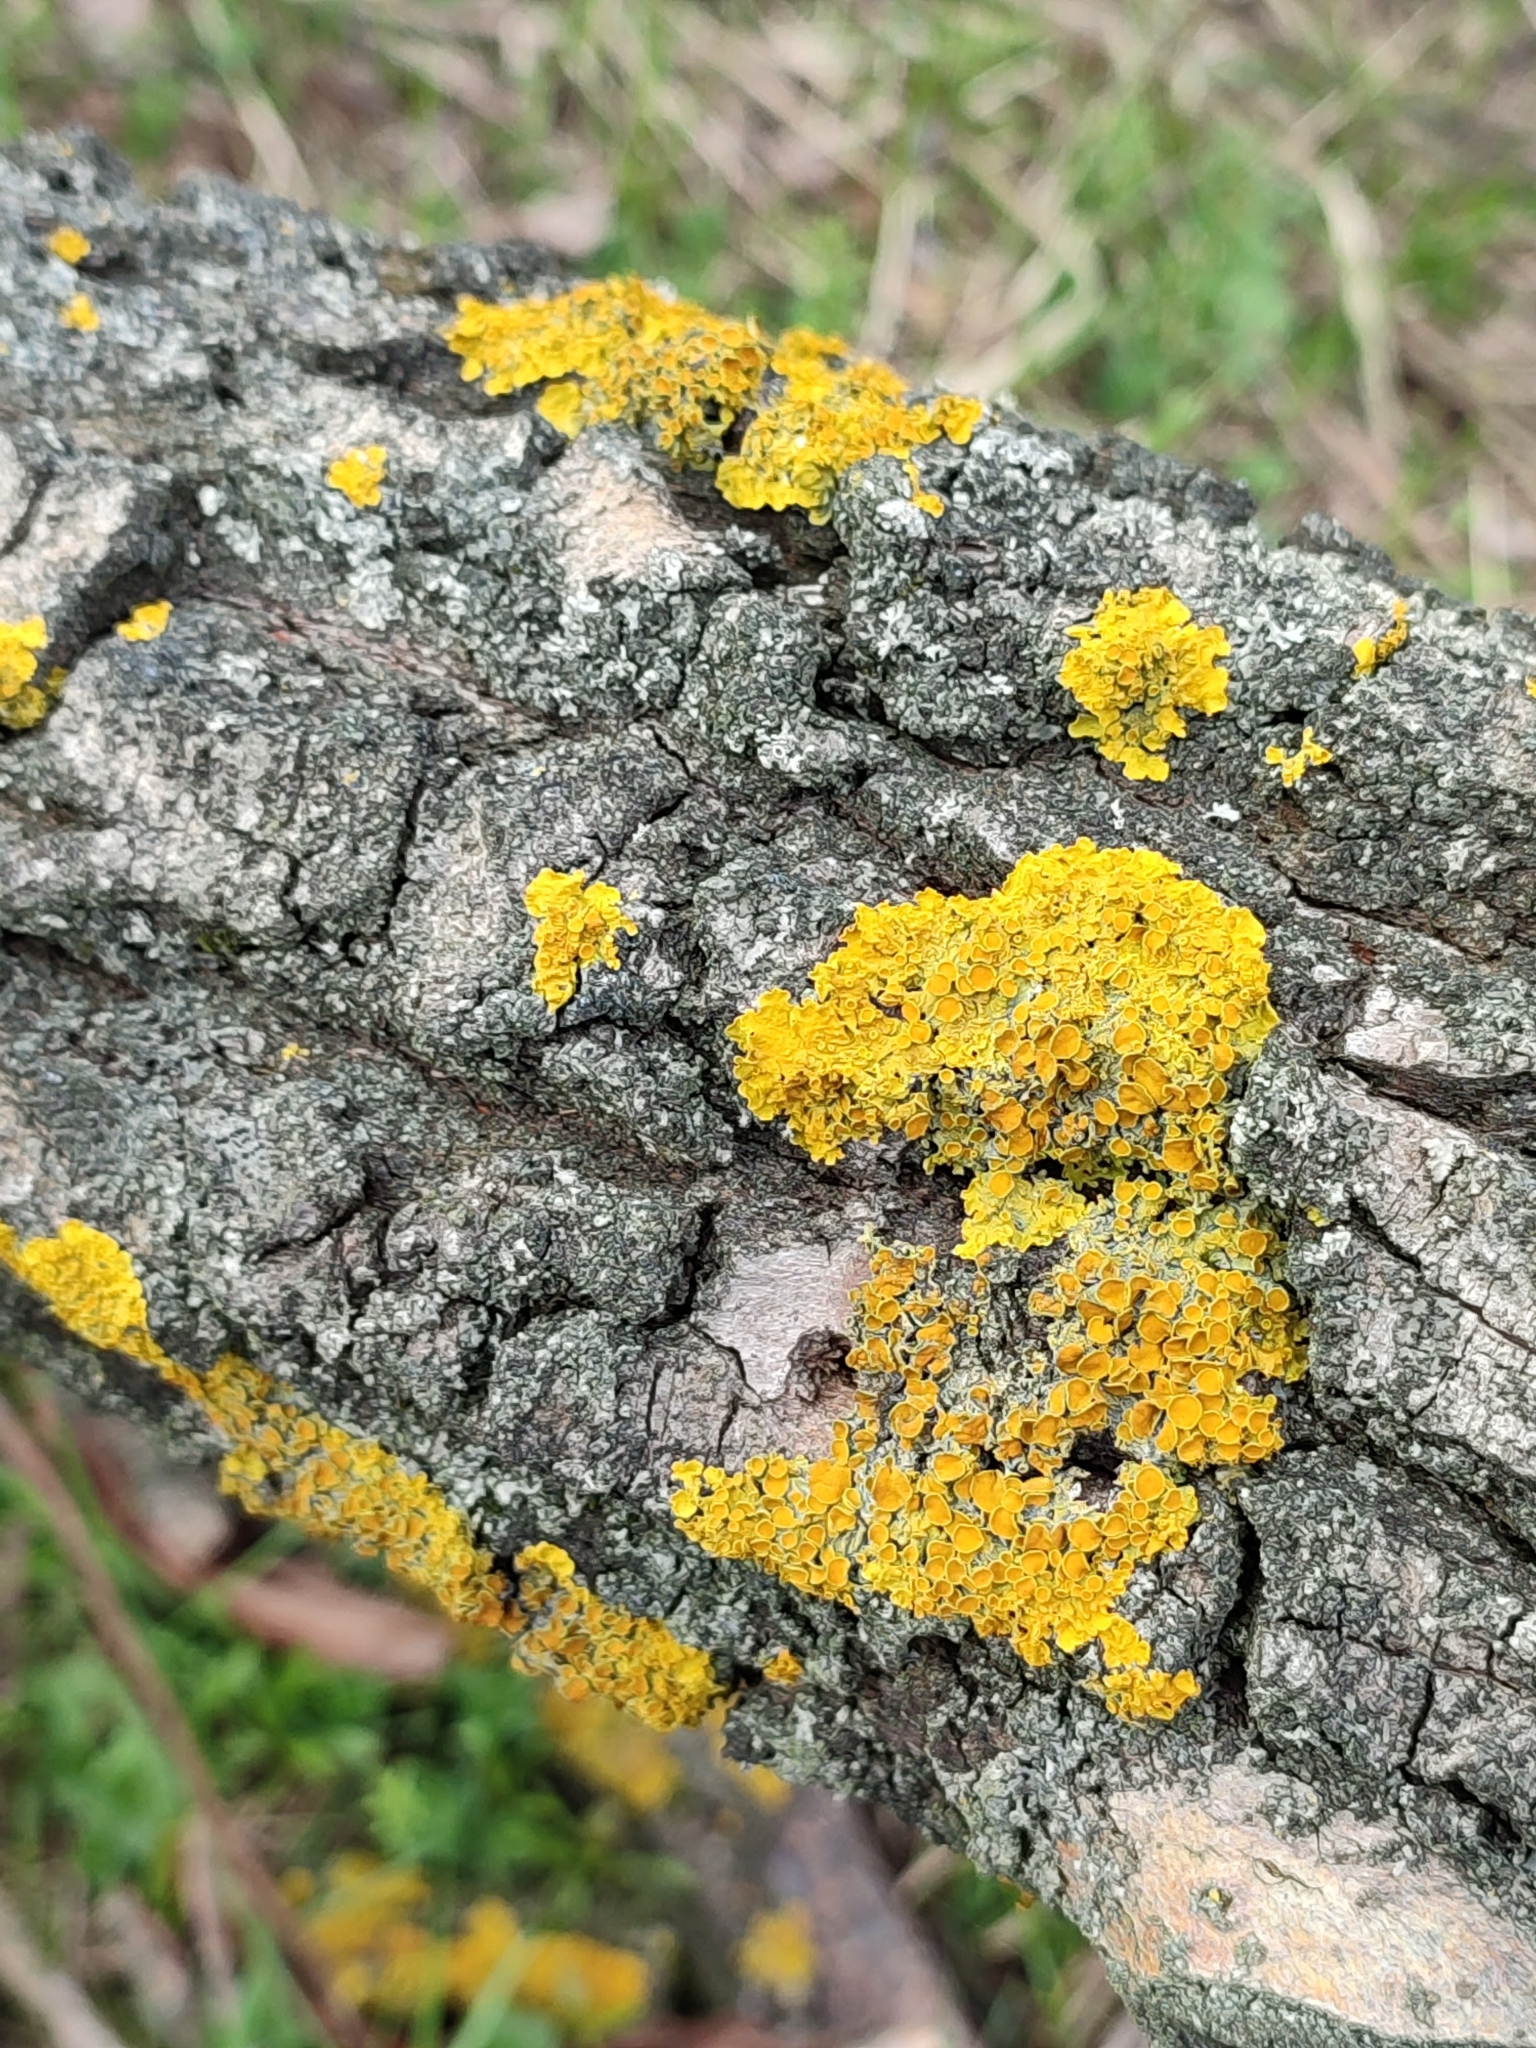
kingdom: Fungi
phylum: Ascomycota
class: Lecanoromycetes
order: Teloschistales
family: Teloschistaceae
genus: Xanthoria
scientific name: Xanthoria parietina
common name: Common orange lichen
